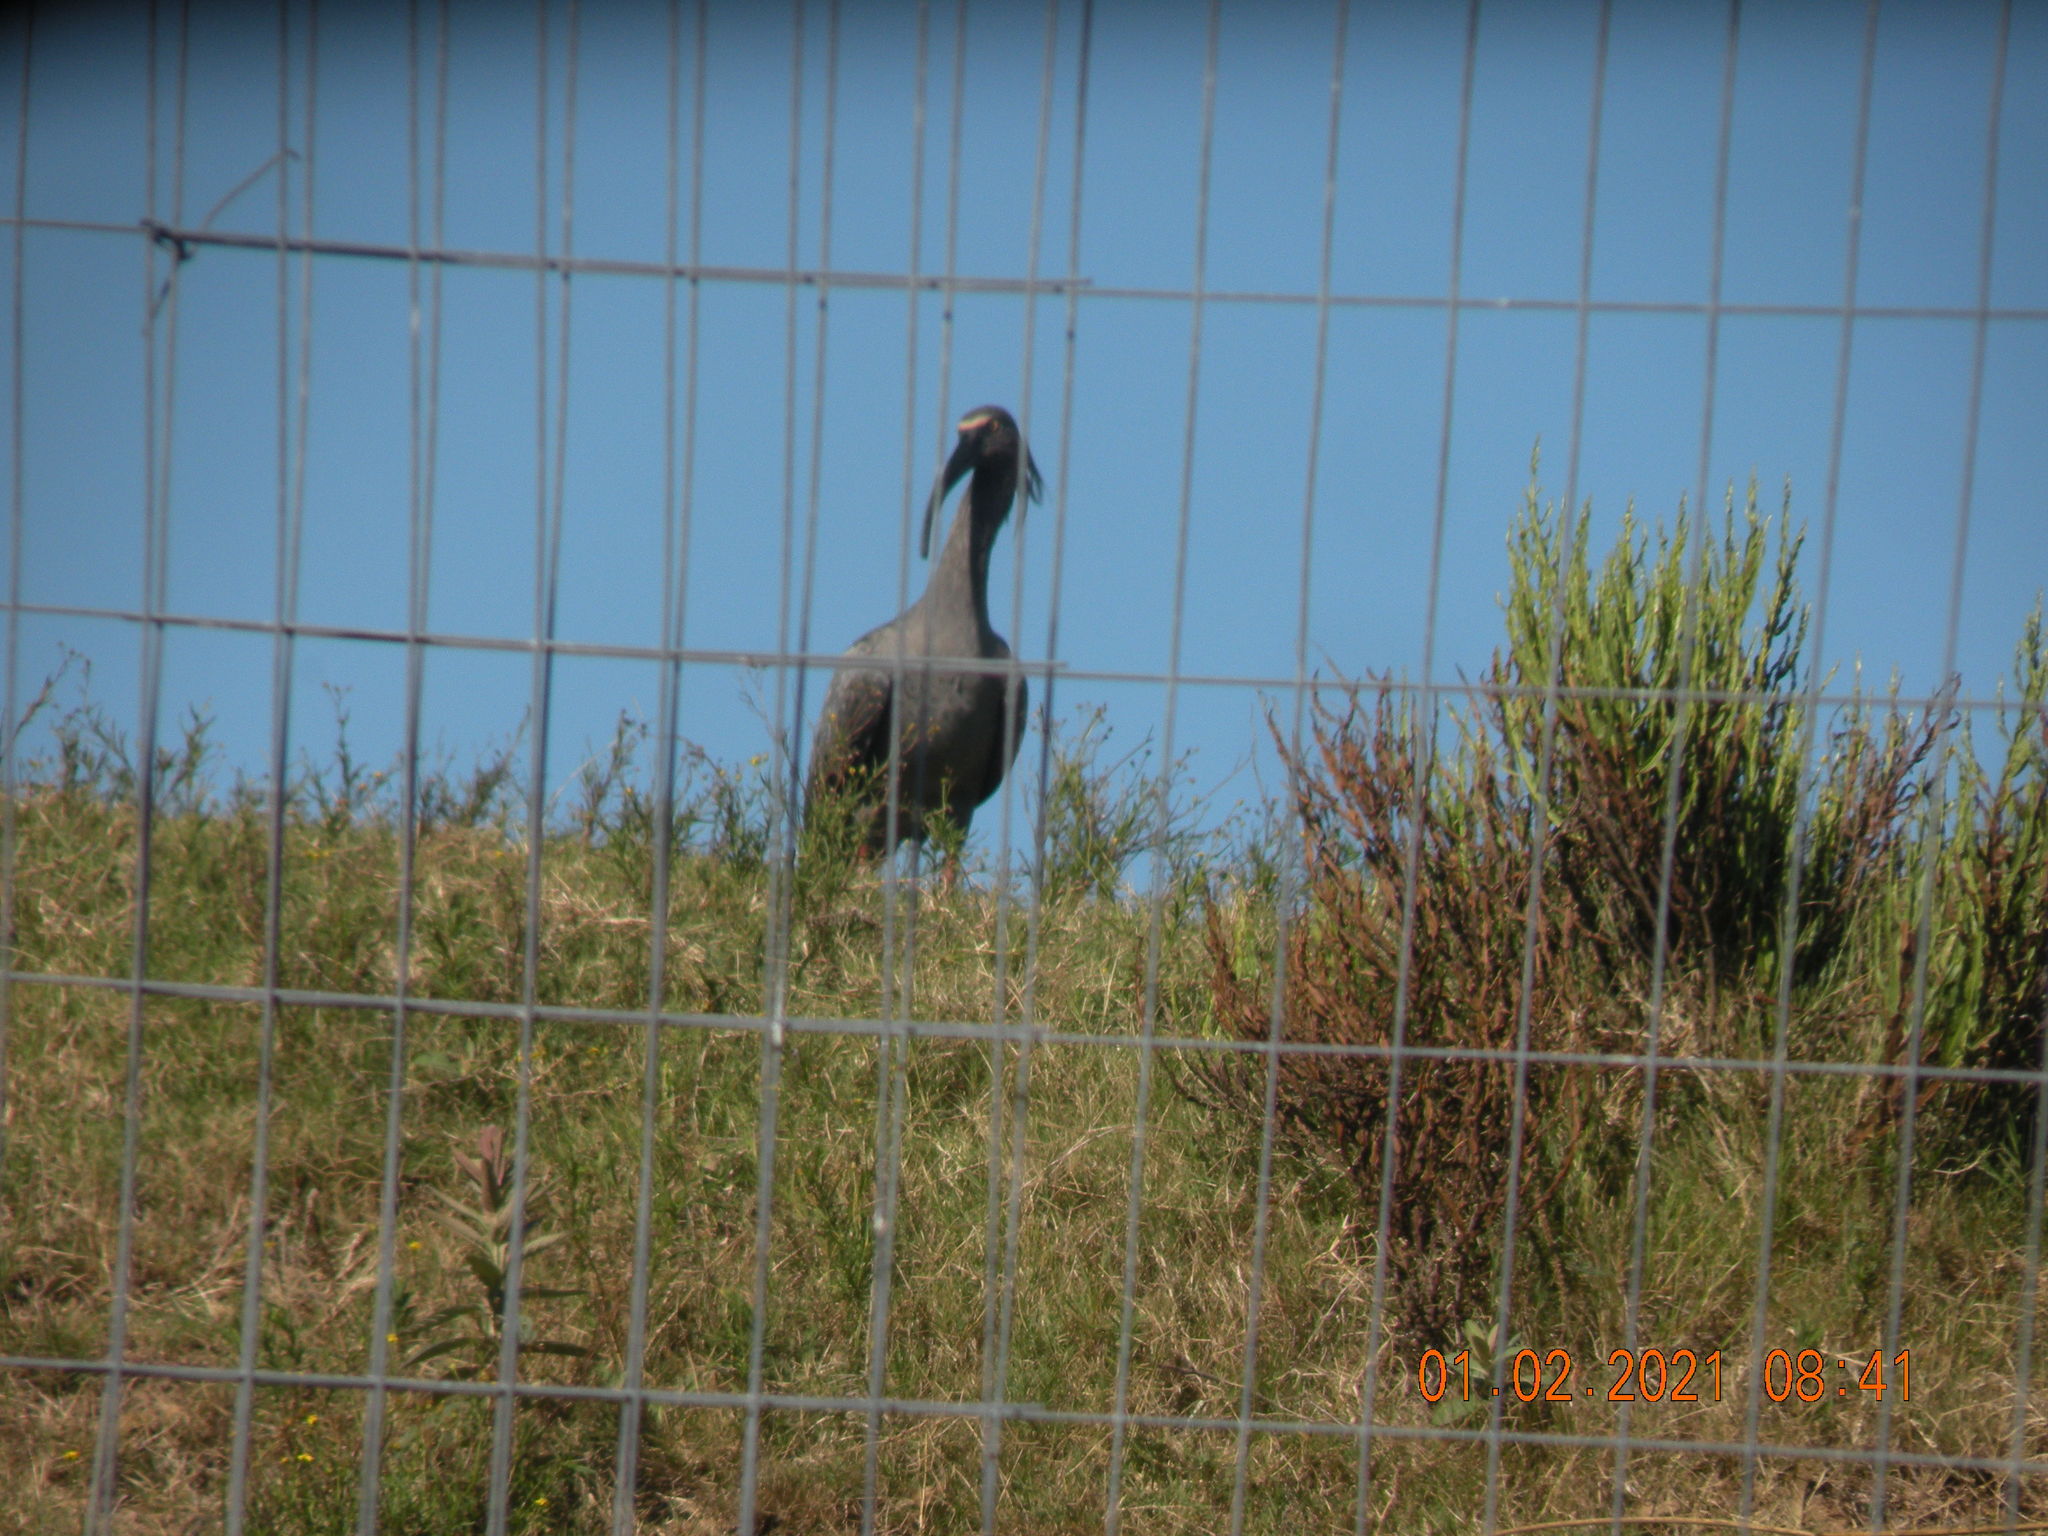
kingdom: Animalia
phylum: Chordata
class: Aves
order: Pelecaniformes
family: Threskiornithidae
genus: Theristicus
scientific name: Theristicus caerulescens
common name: Plumbeous ibis
